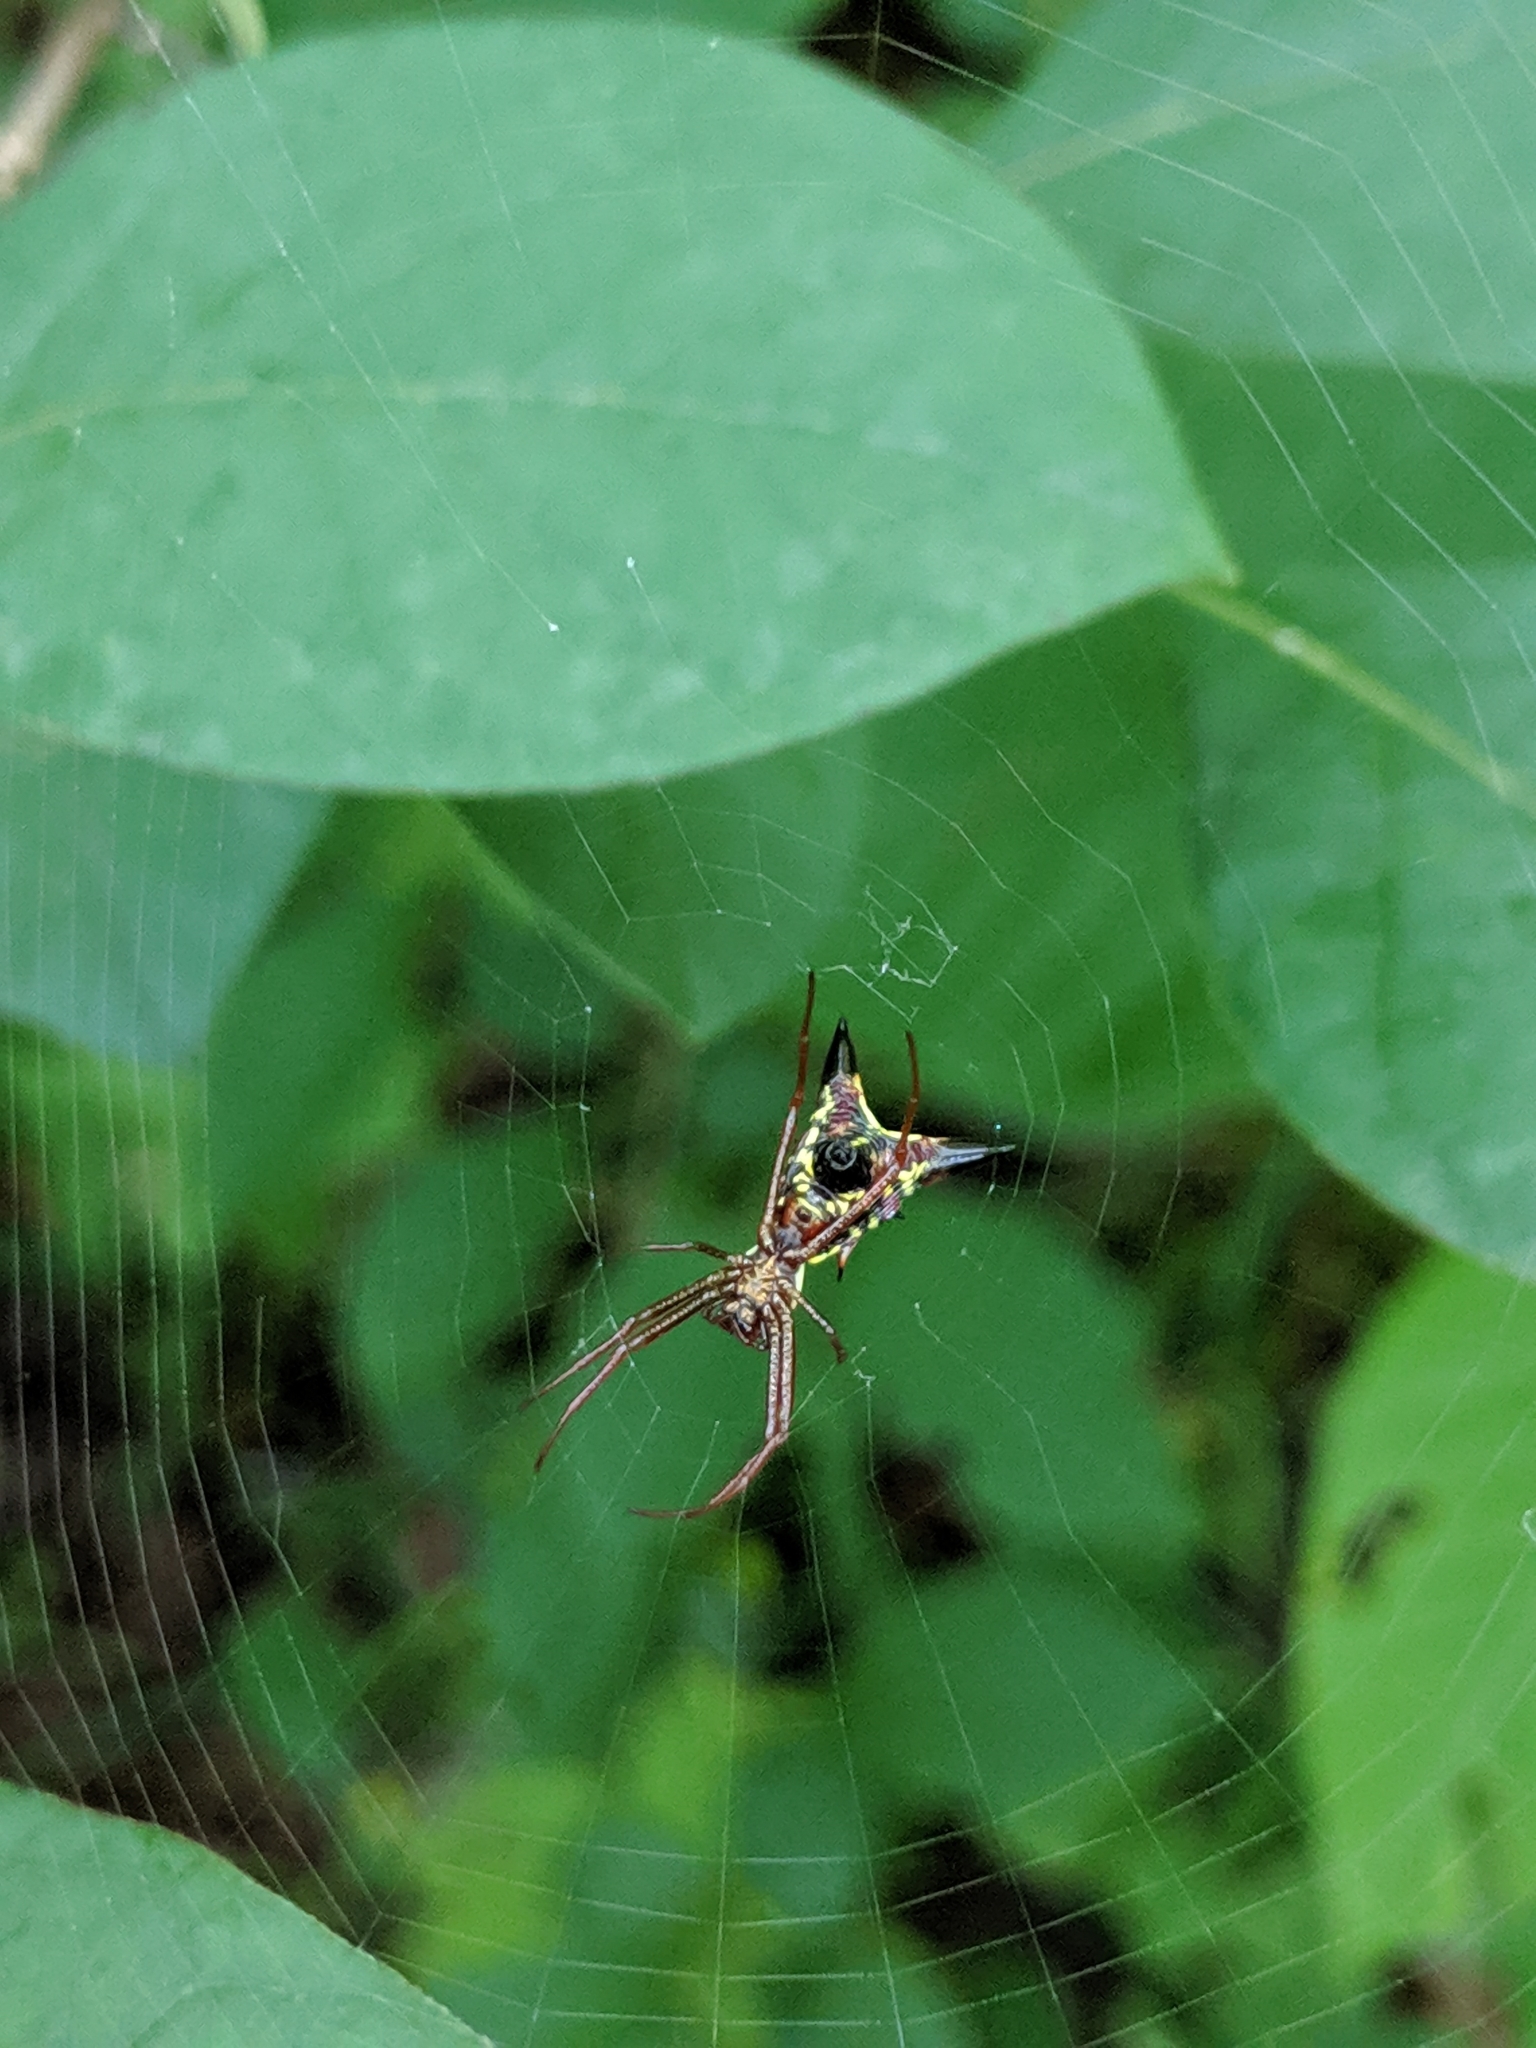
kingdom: Animalia
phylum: Arthropoda
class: Arachnida
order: Araneae
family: Araneidae
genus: Micrathena
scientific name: Micrathena sagittata
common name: Orb weavers
